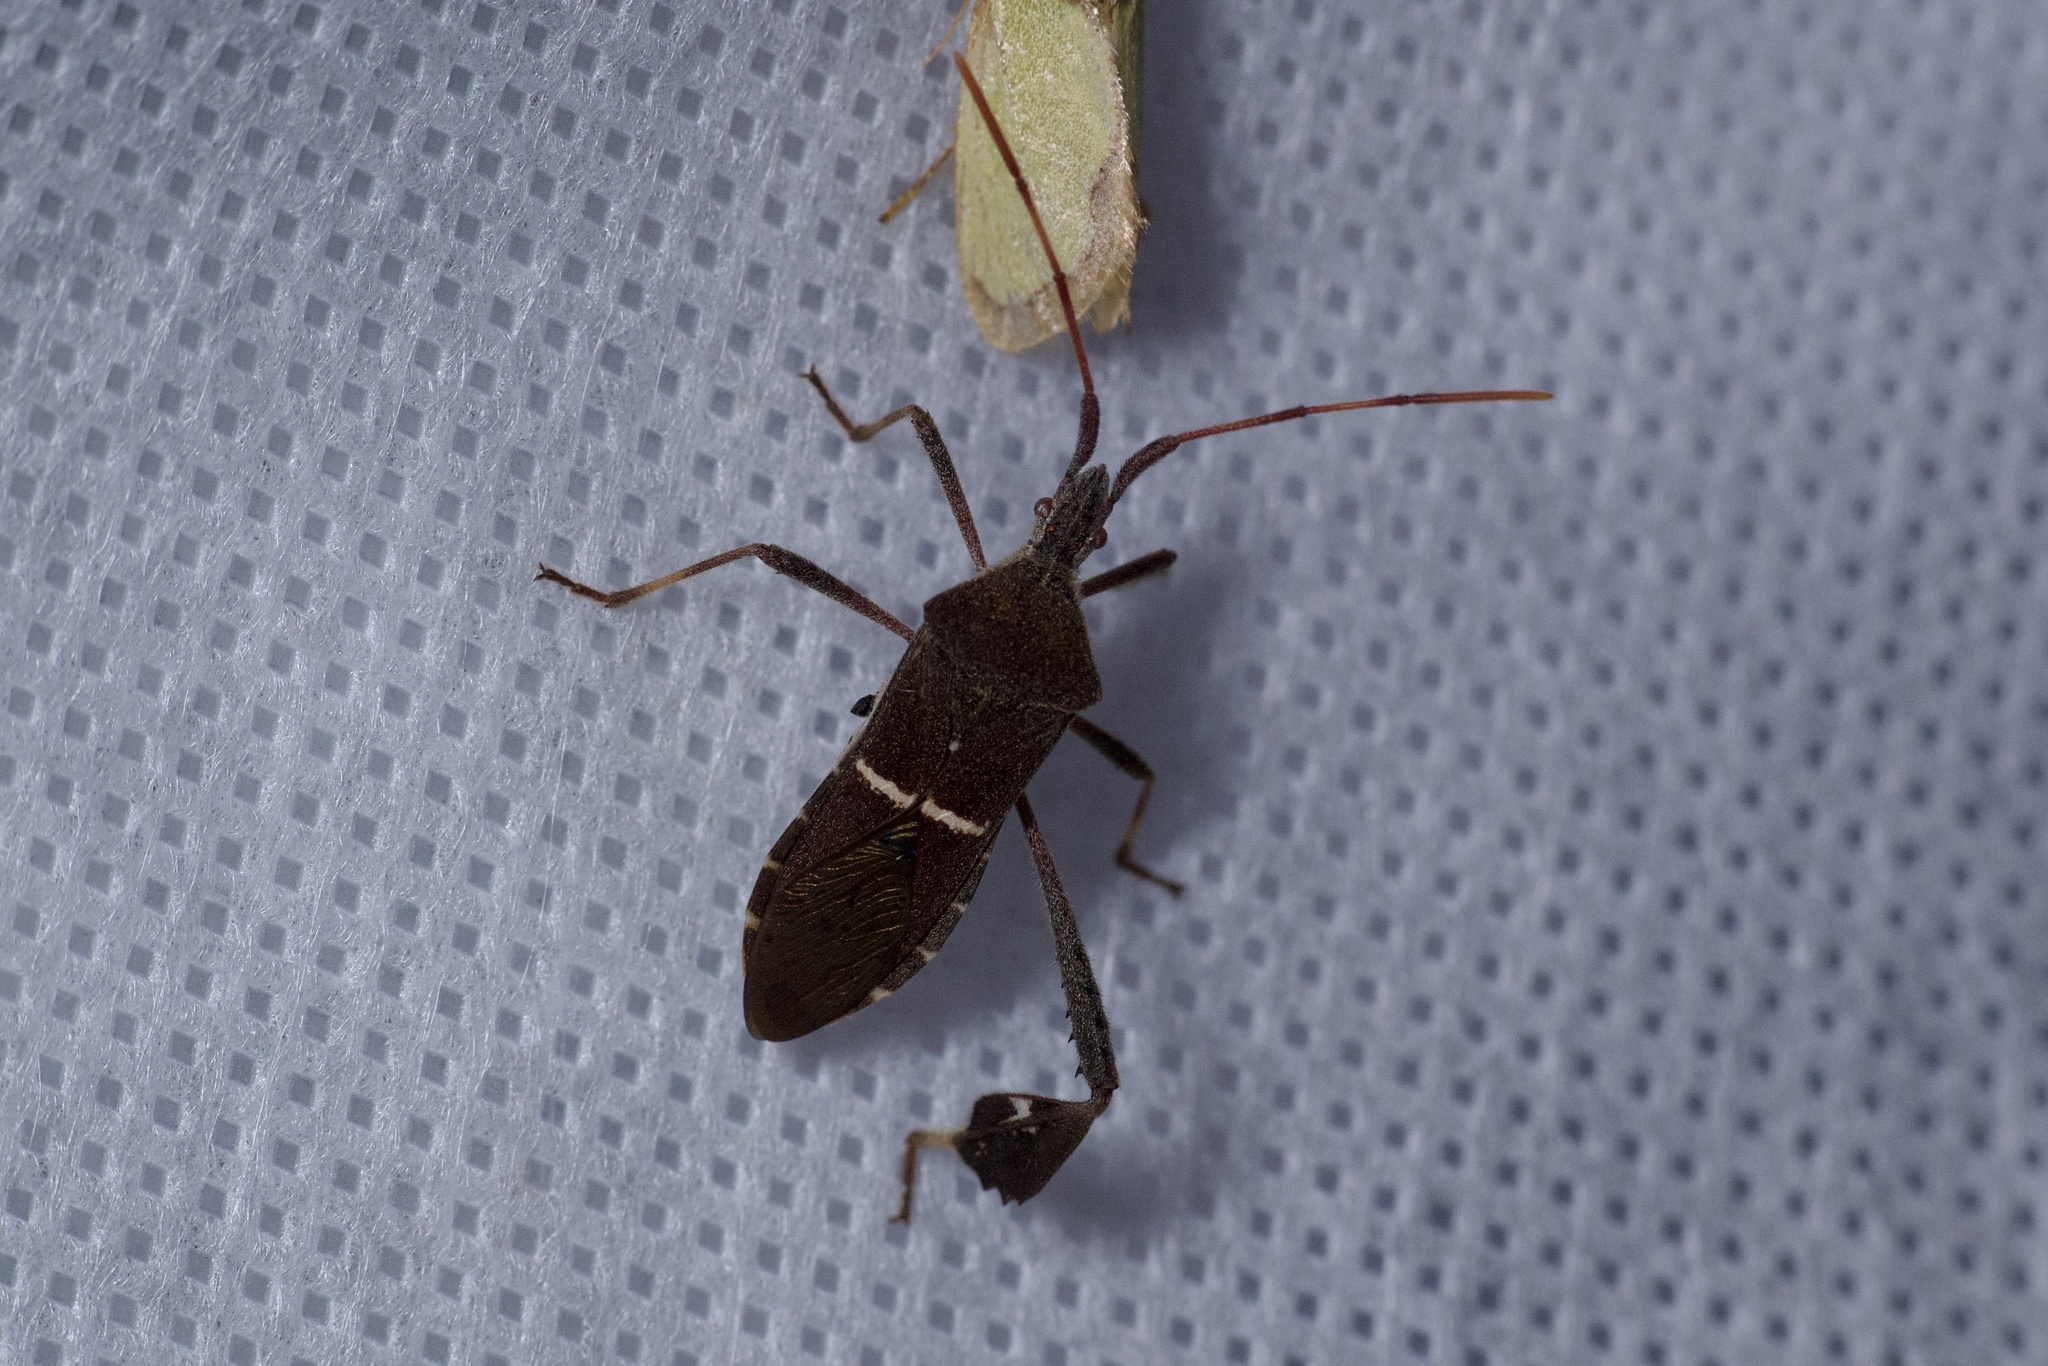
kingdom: Animalia
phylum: Arthropoda
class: Insecta
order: Hemiptera
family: Coreidae
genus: Leptoglossus
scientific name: Leptoglossus phyllopus
